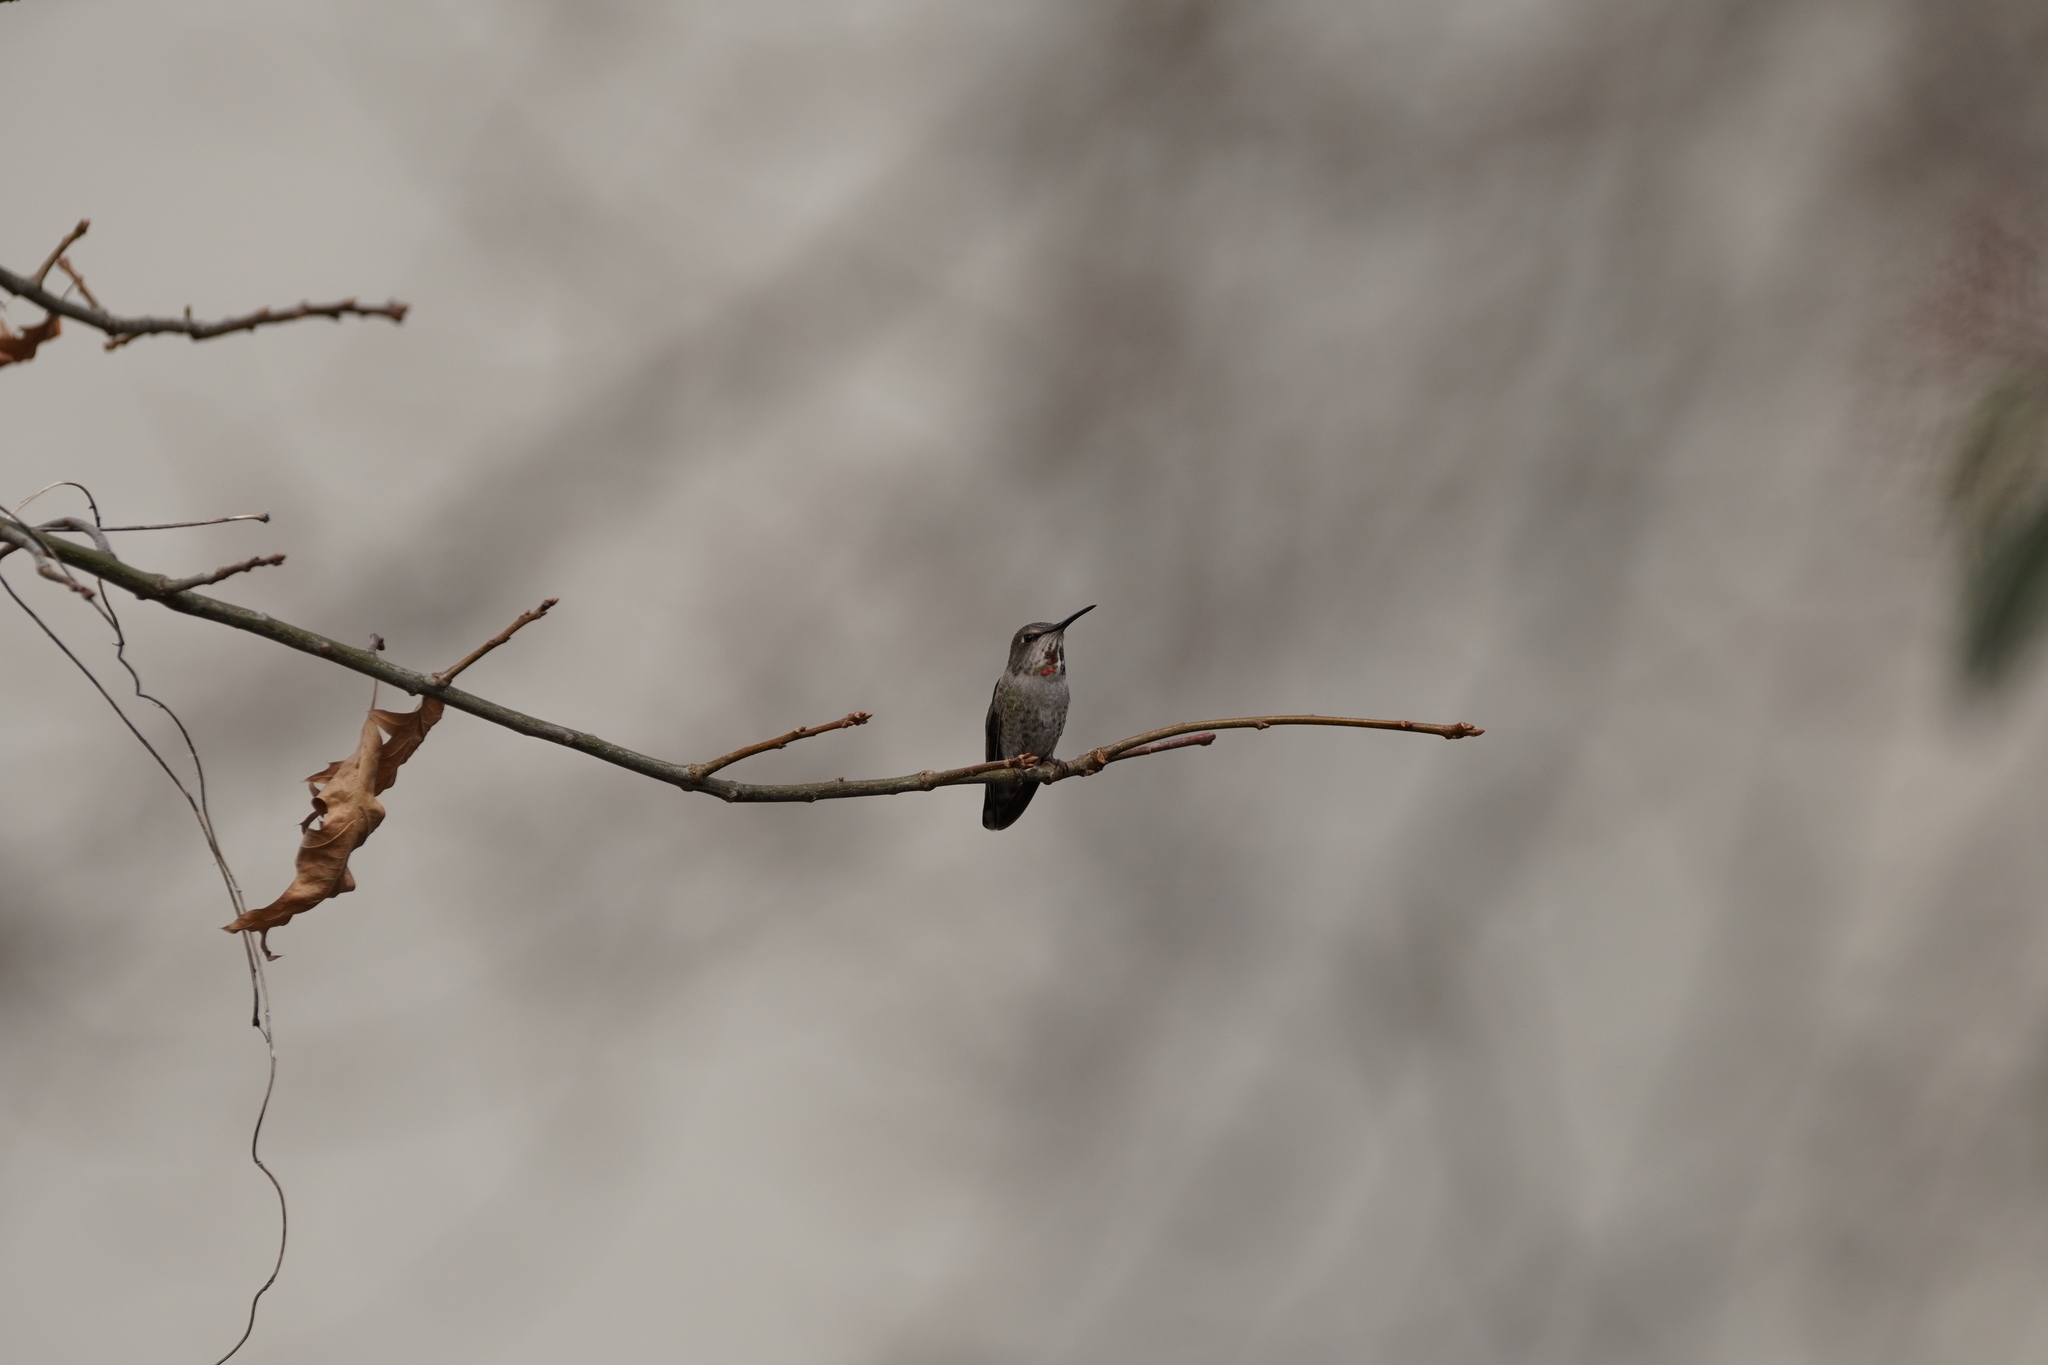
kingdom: Animalia
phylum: Chordata
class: Aves
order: Apodiformes
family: Trochilidae
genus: Calypte
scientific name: Calypte anna
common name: Anna's hummingbird
